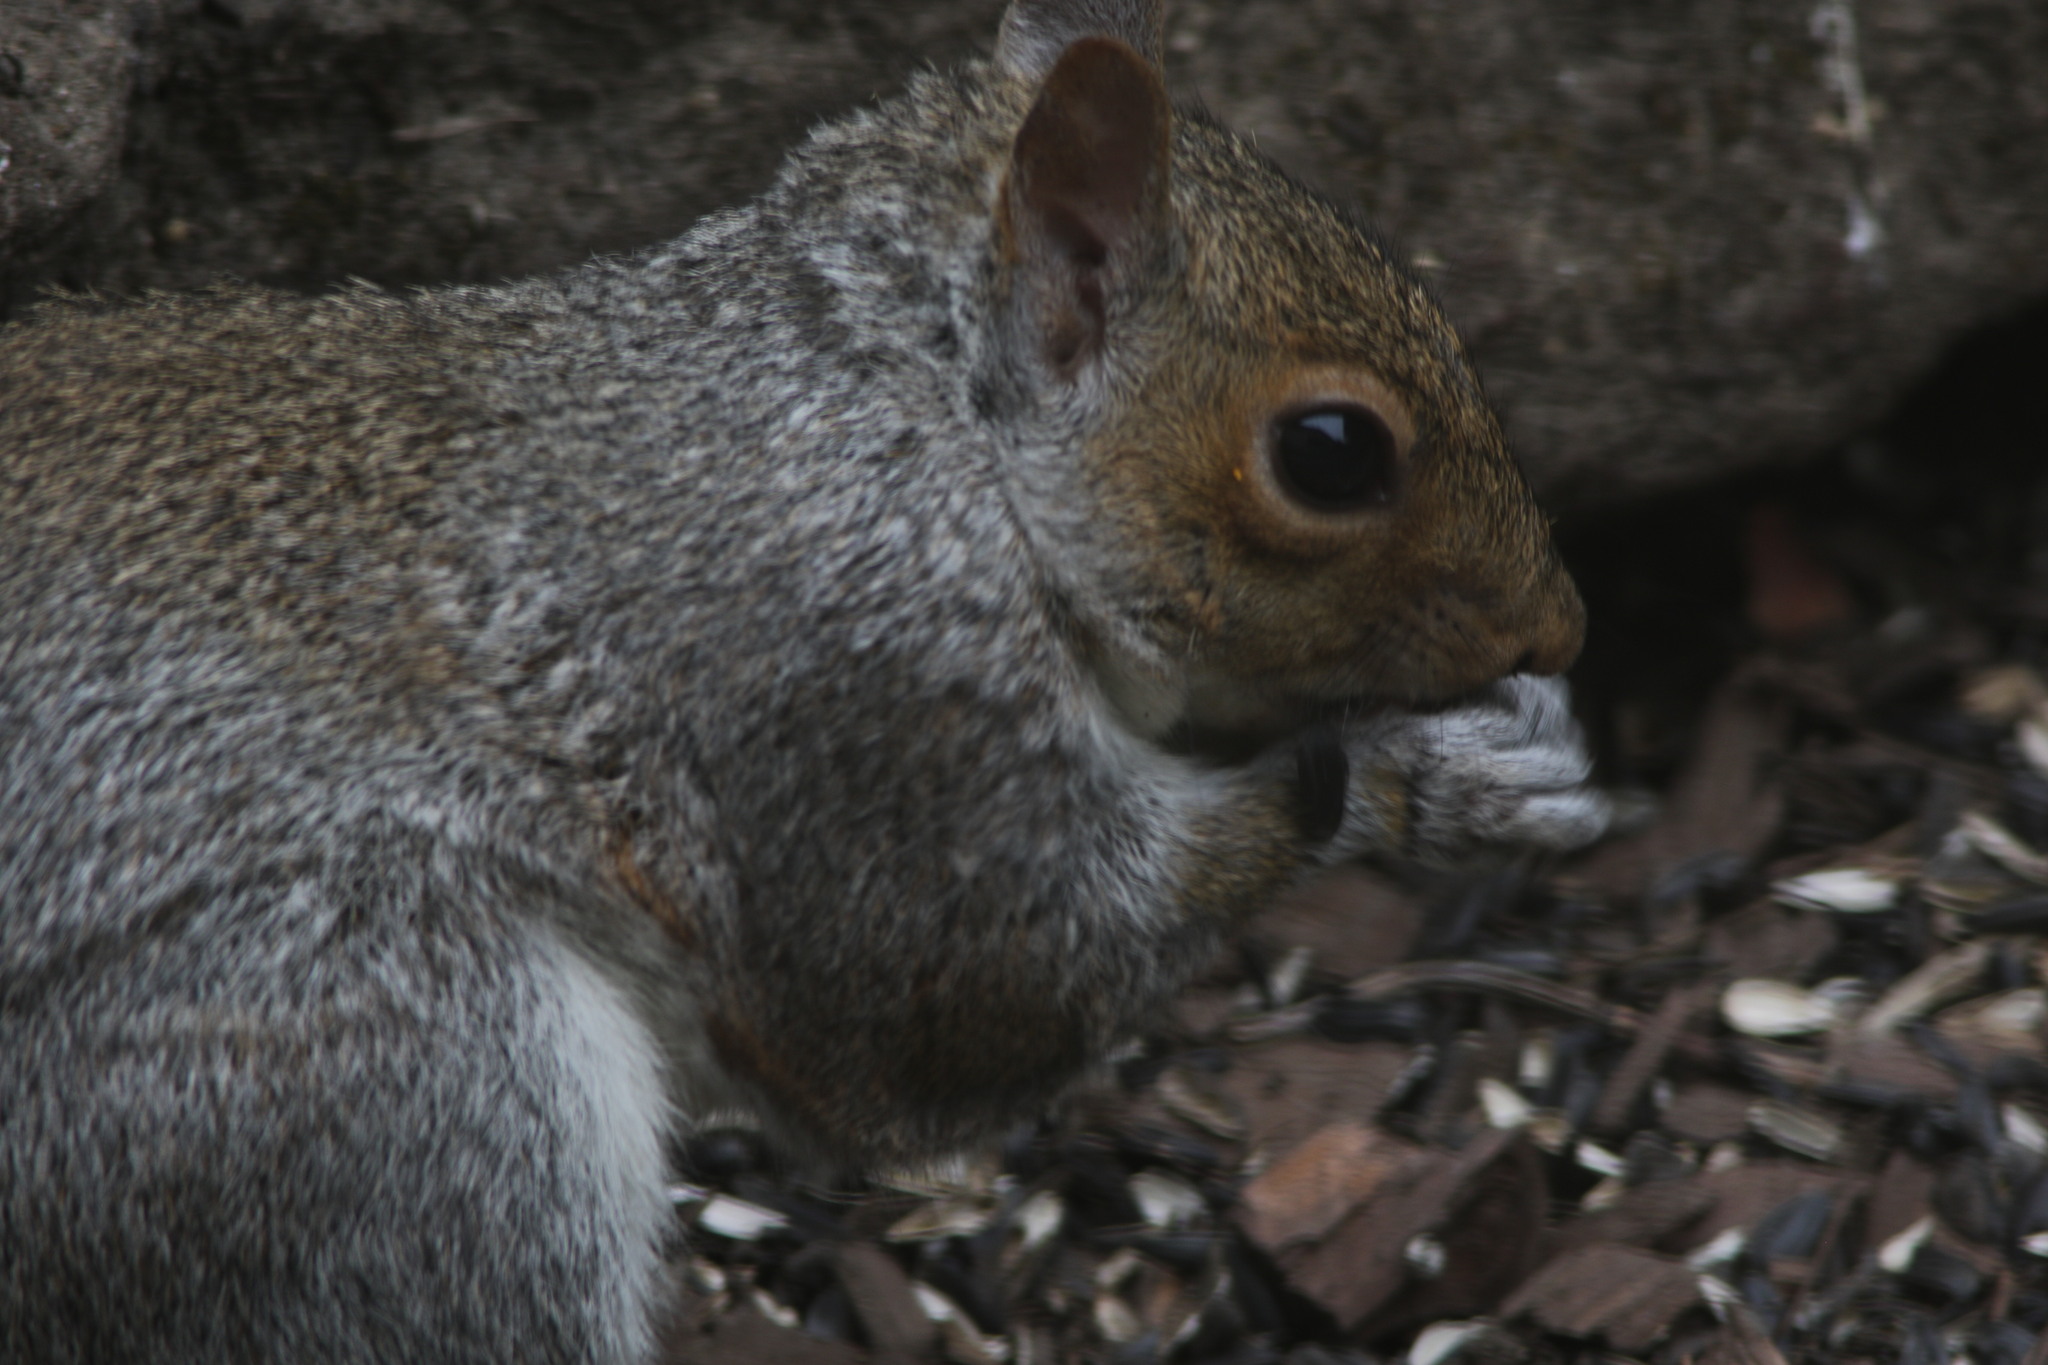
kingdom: Animalia
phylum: Chordata
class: Mammalia
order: Rodentia
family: Sciuridae
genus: Sciurus
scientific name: Sciurus carolinensis
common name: Eastern gray squirrel
